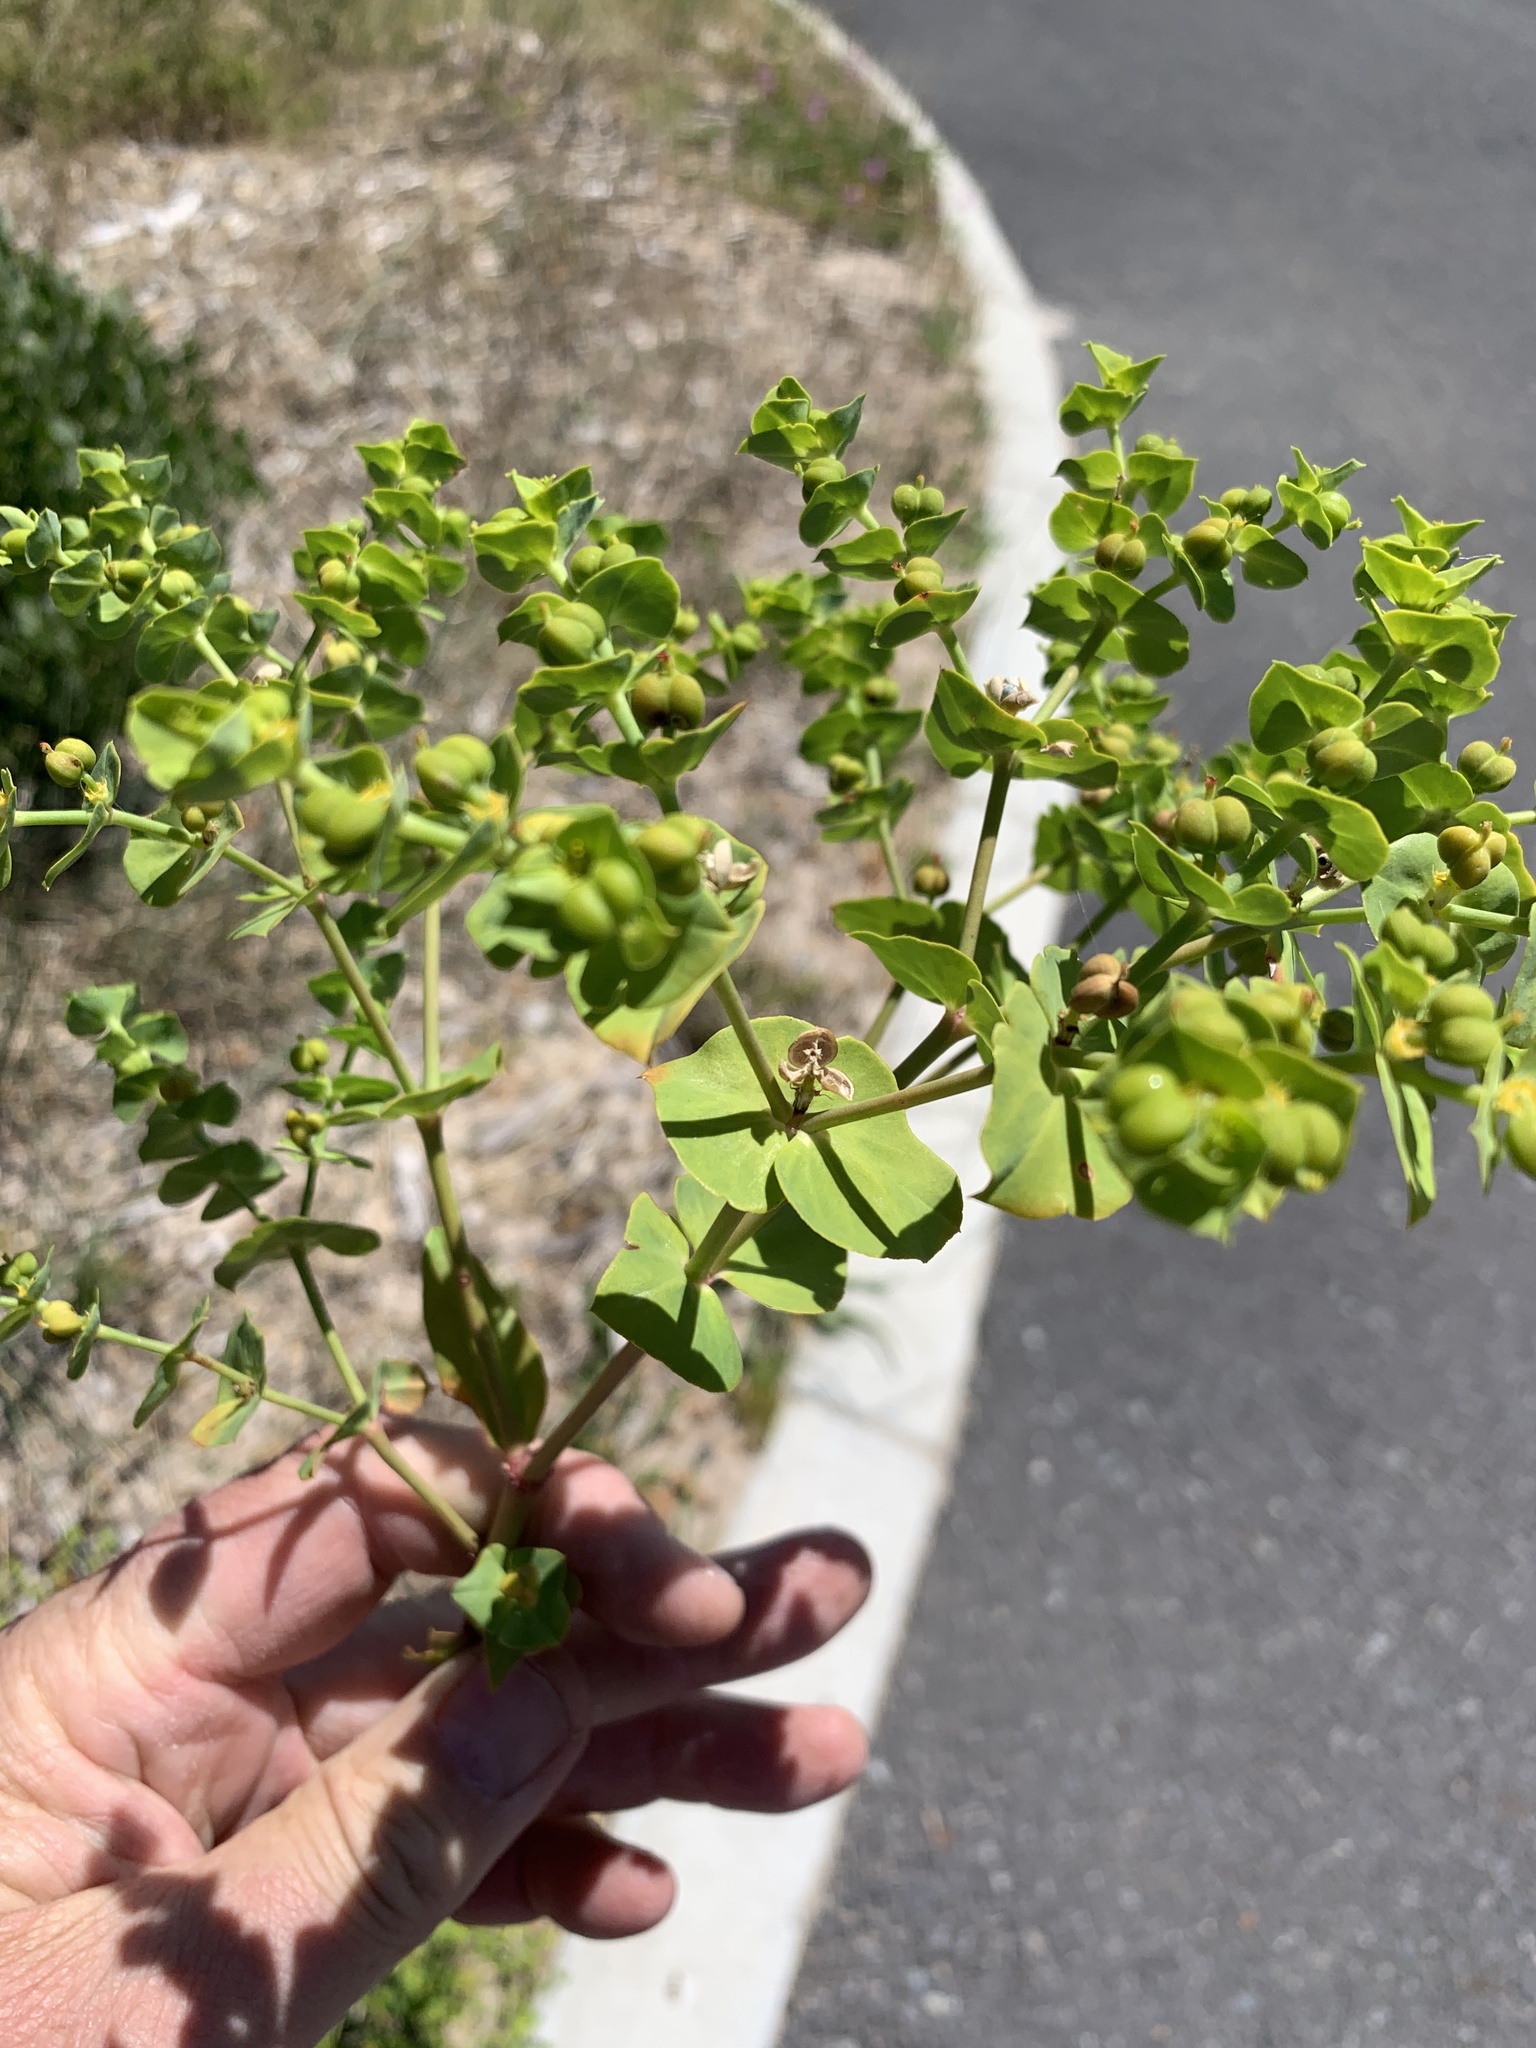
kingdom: Plantae
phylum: Tracheophyta
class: Magnoliopsida
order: Malpighiales
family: Euphorbiaceae
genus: Euphorbia
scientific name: Euphorbia terracina
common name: Geraldton carnation weed
